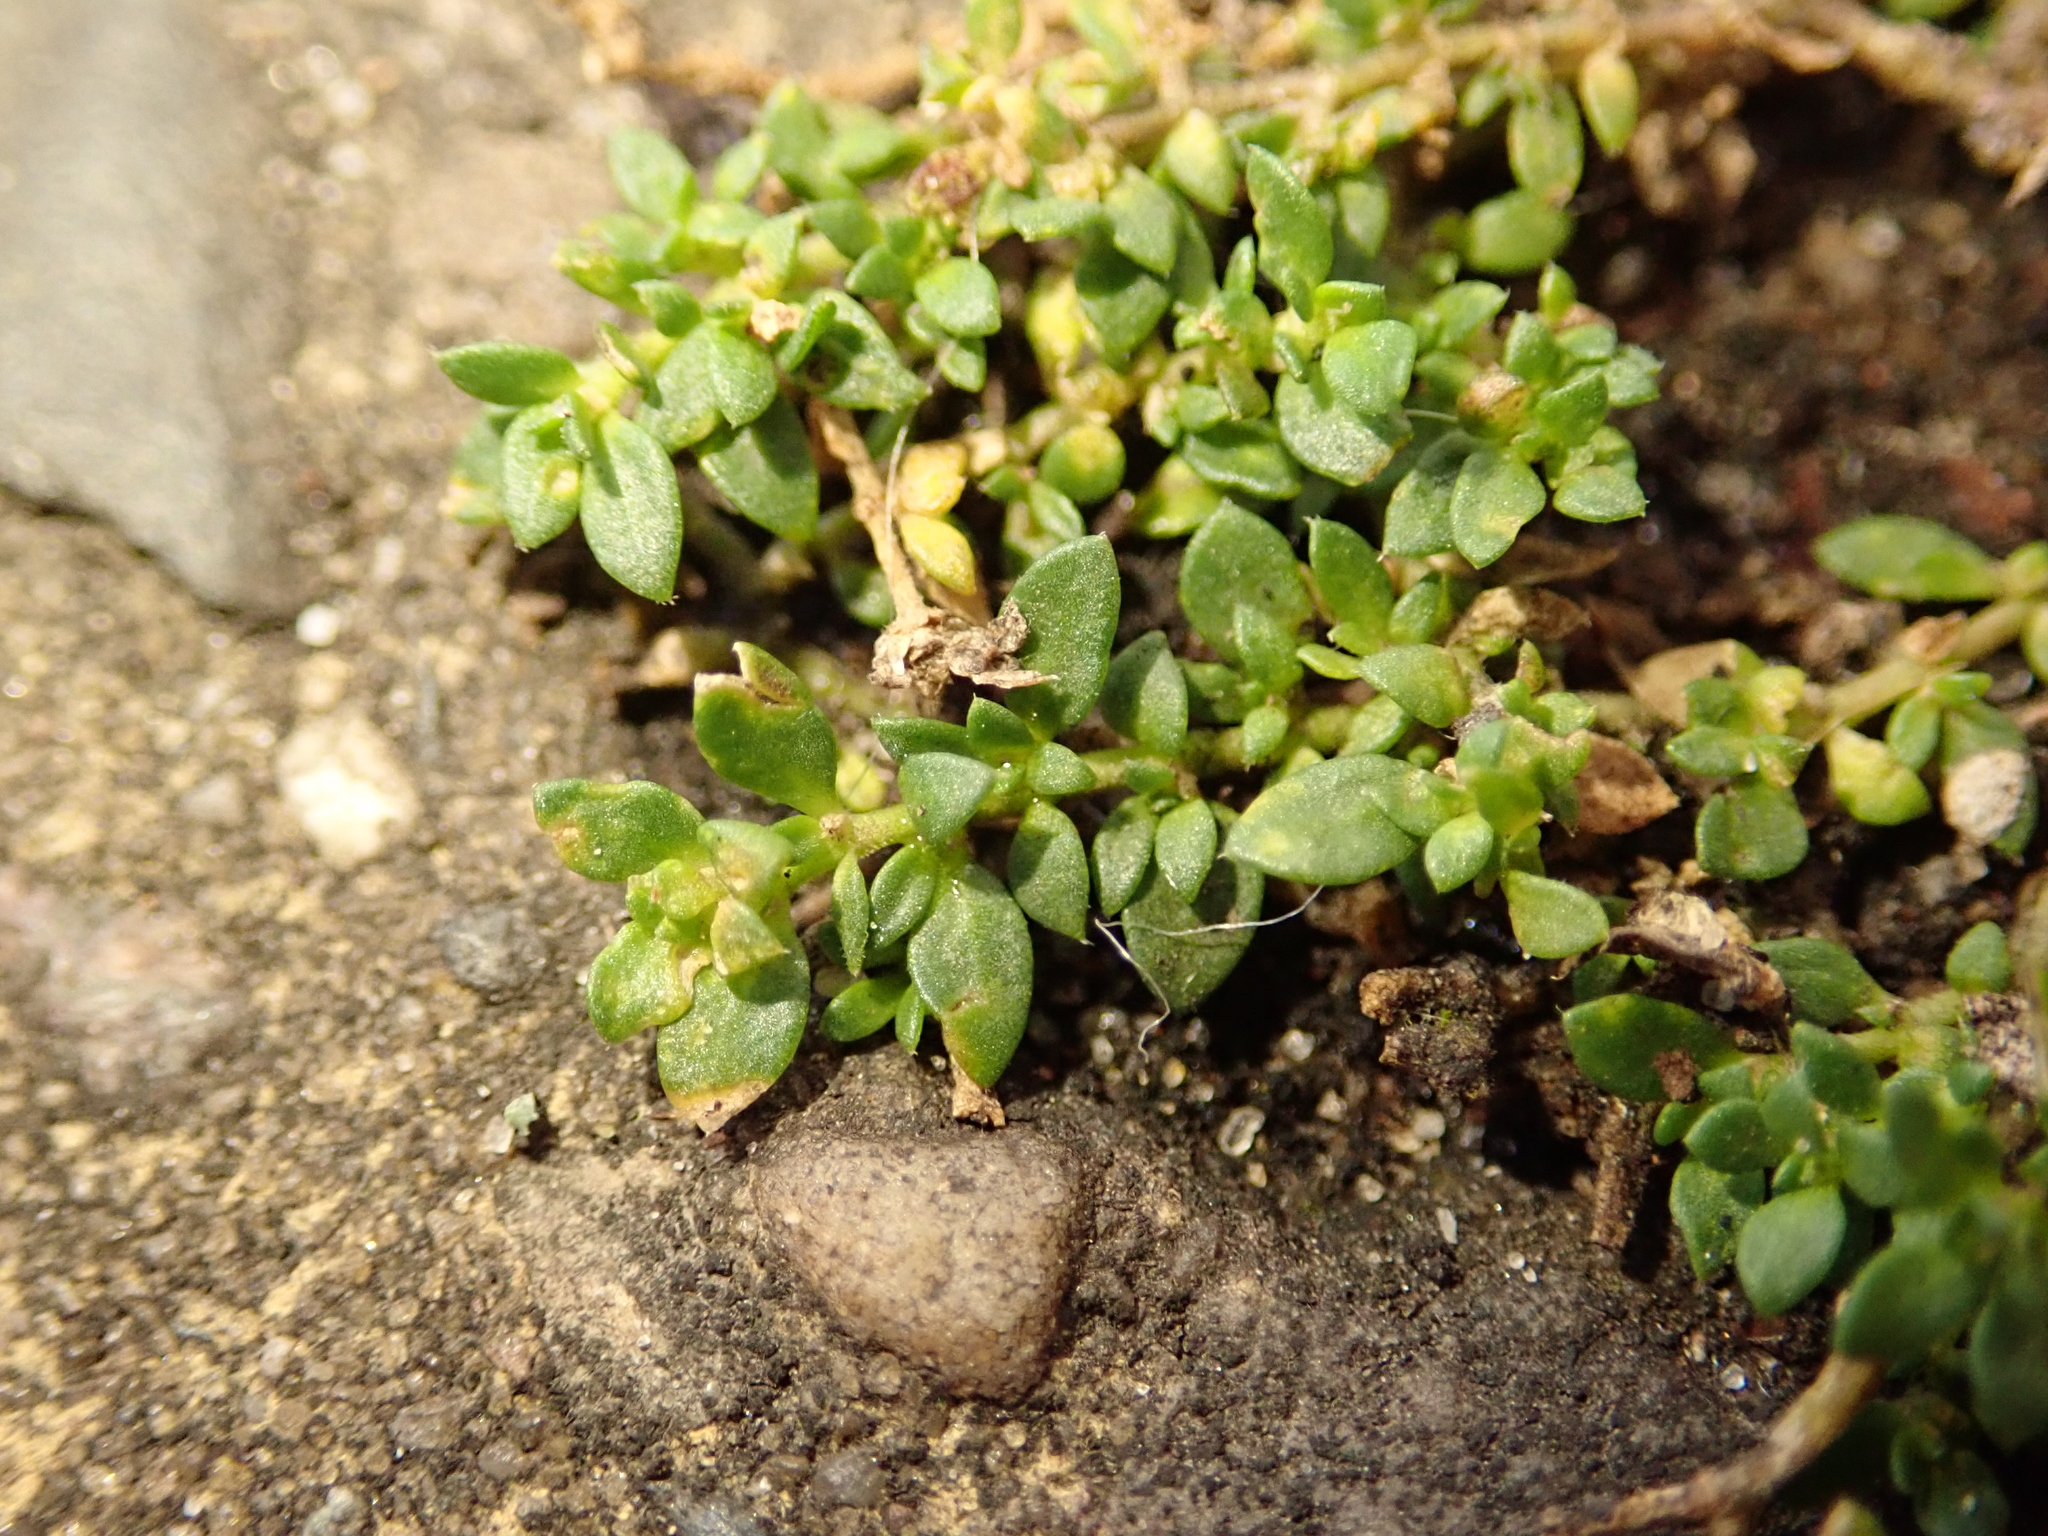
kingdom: Plantae
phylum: Tracheophyta
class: Magnoliopsida
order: Caryophyllales
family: Caryophyllaceae
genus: Herniaria
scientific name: Herniaria glabra
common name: Smooth rupturewort
